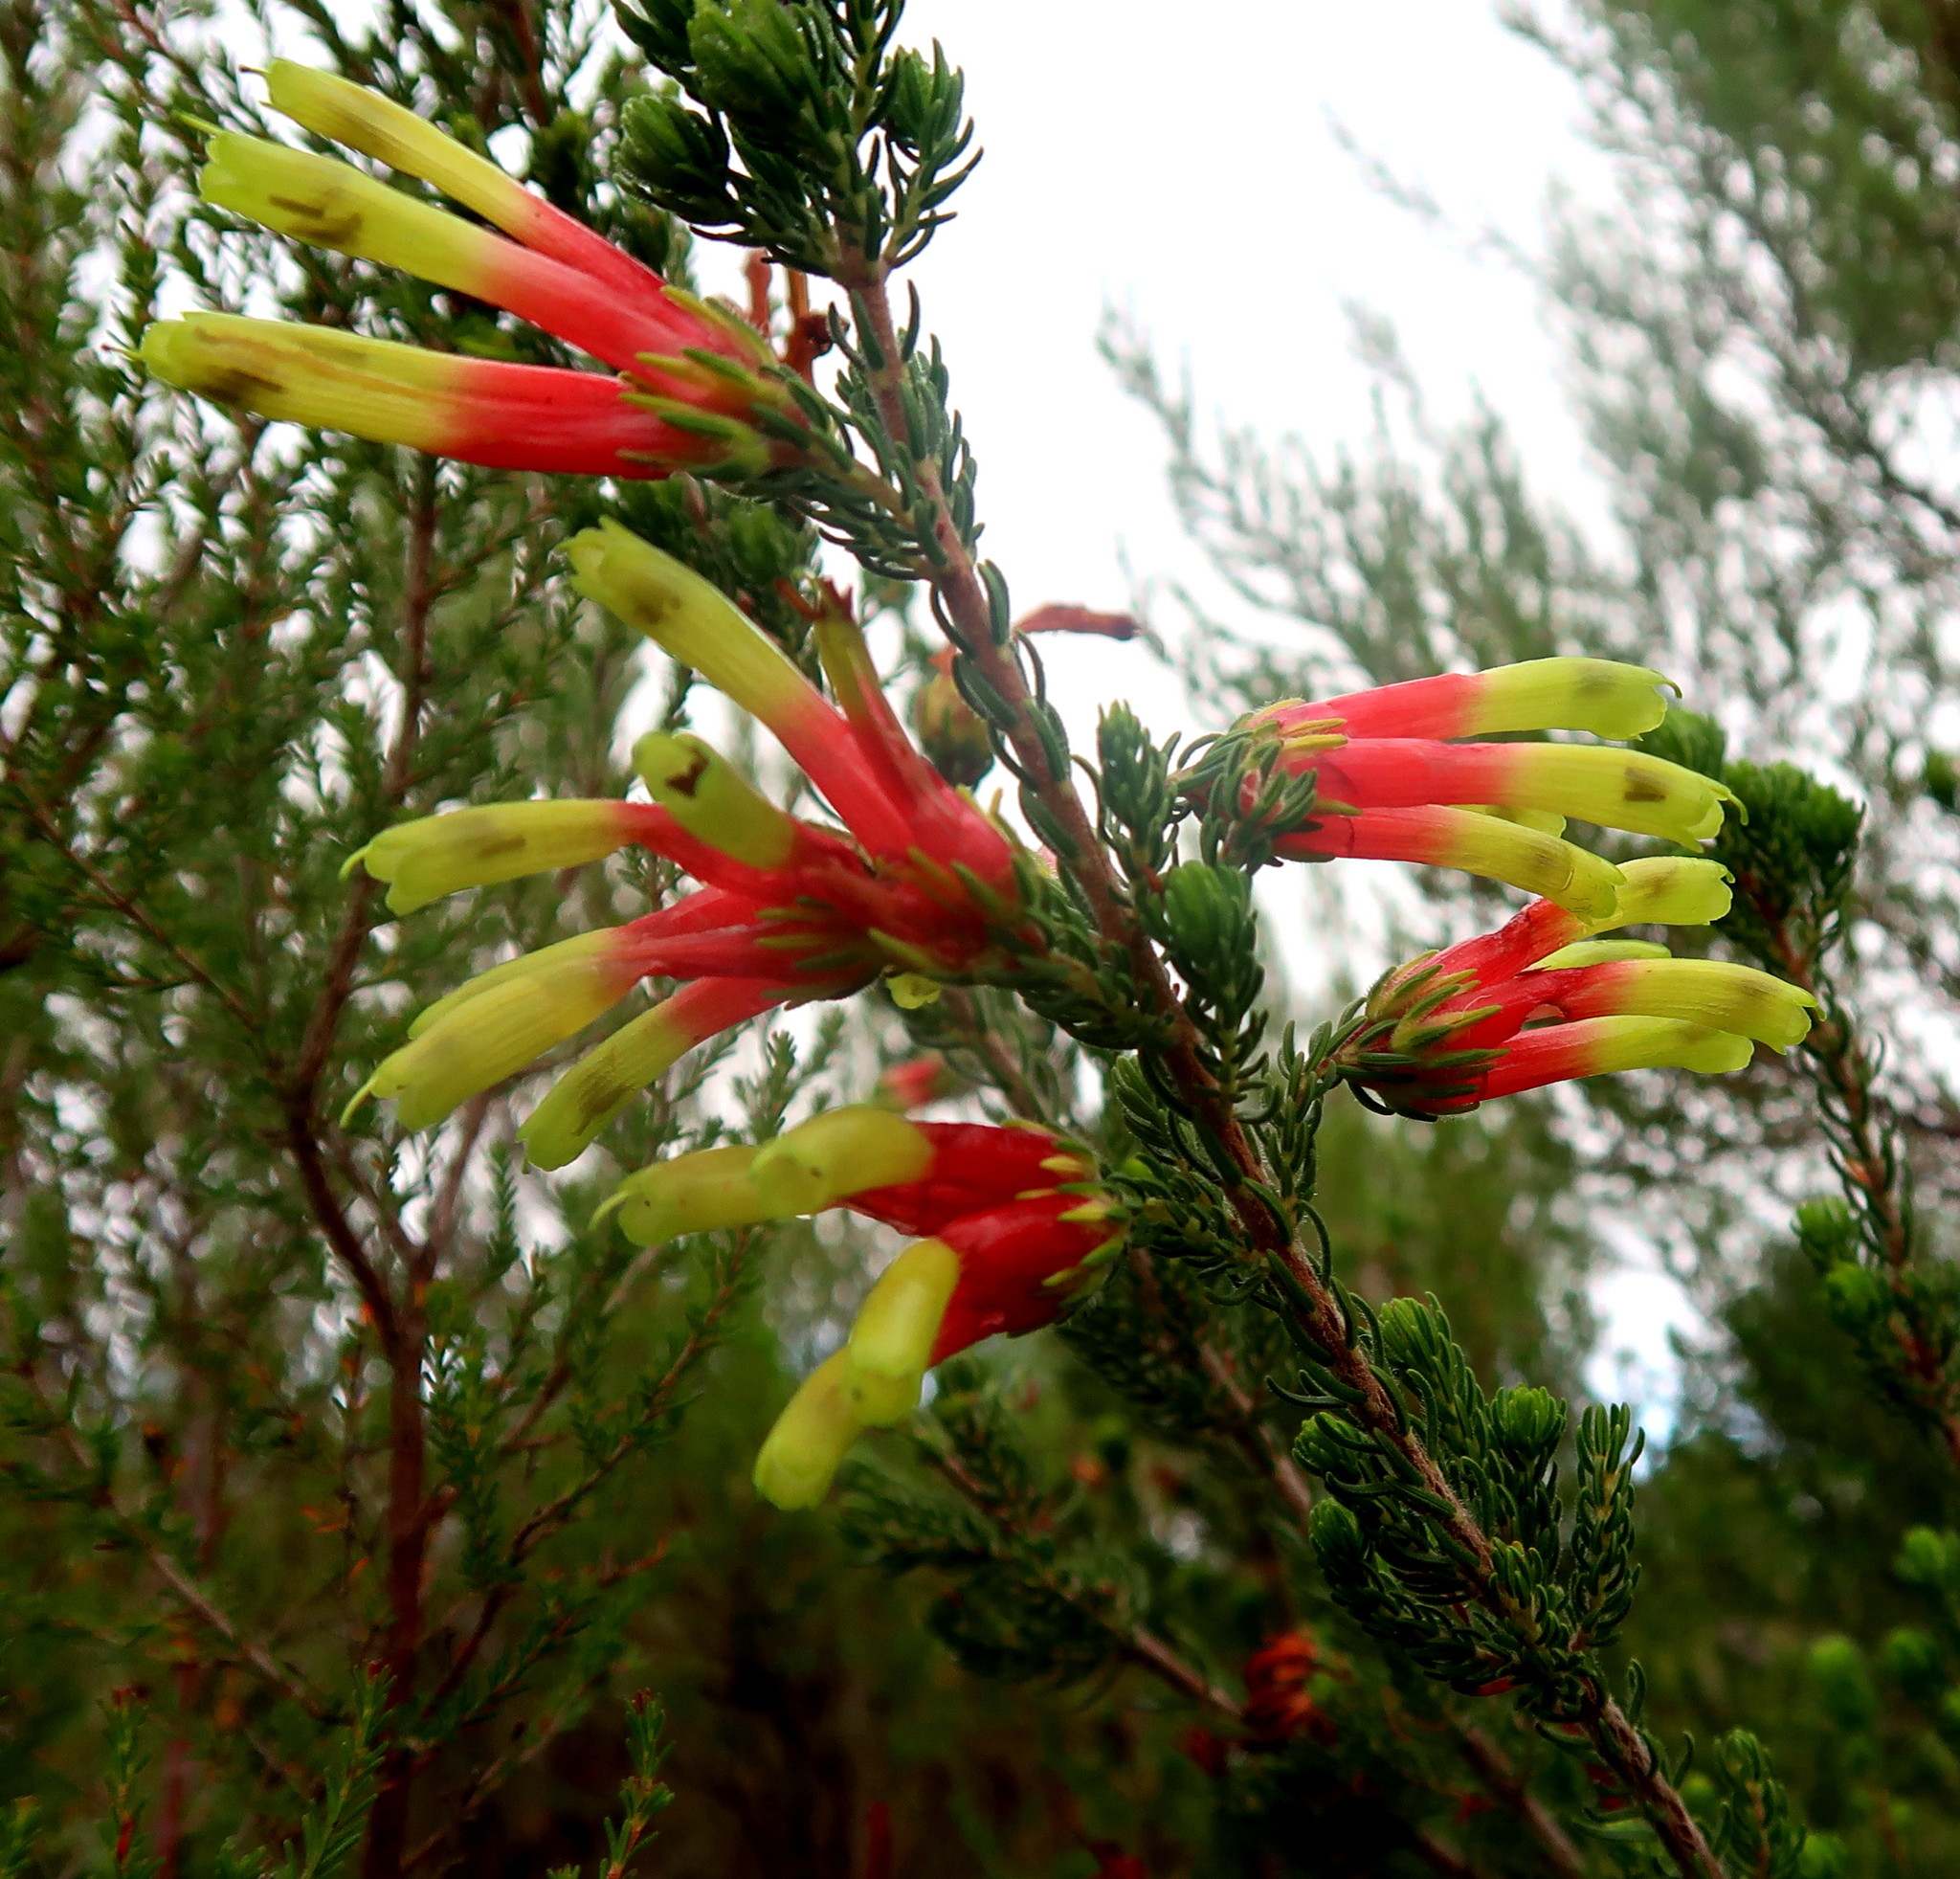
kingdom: Plantae
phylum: Tracheophyta
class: Magnoliopsida
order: Ericales
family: Ericaceae
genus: Erica
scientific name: Erica unicolor
